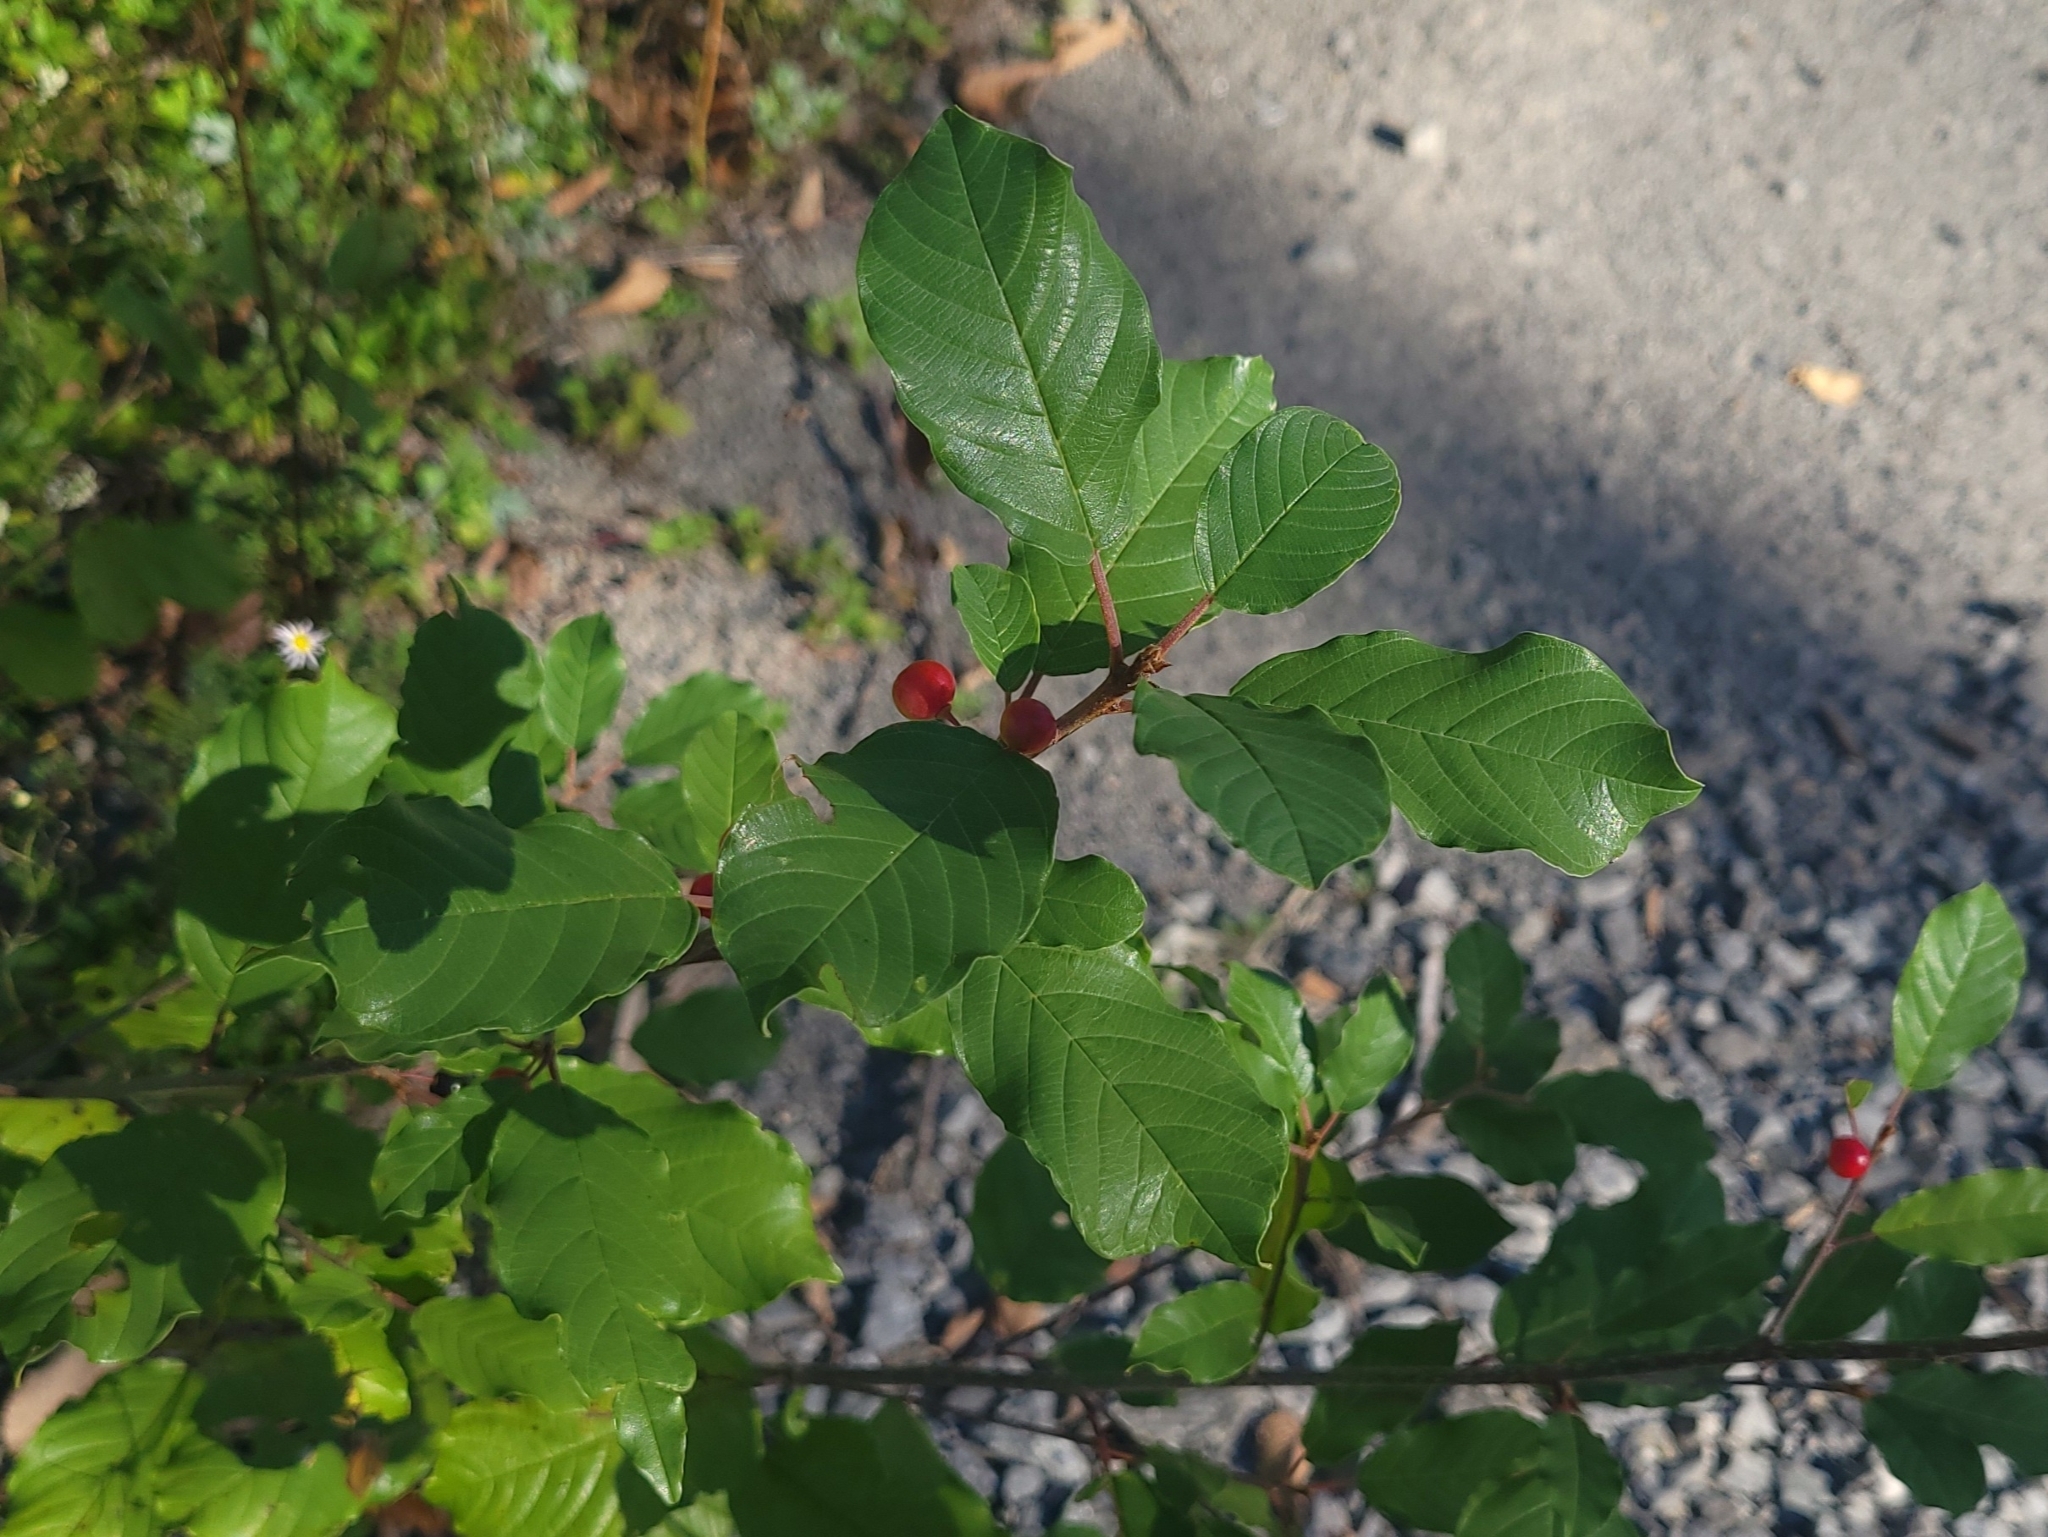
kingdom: Plantae
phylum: Tracheophyta
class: Magnoliopsida
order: Rosales
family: Rhamnaceae
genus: Frangula
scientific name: Frangula alnus
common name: Alder buckthorn
